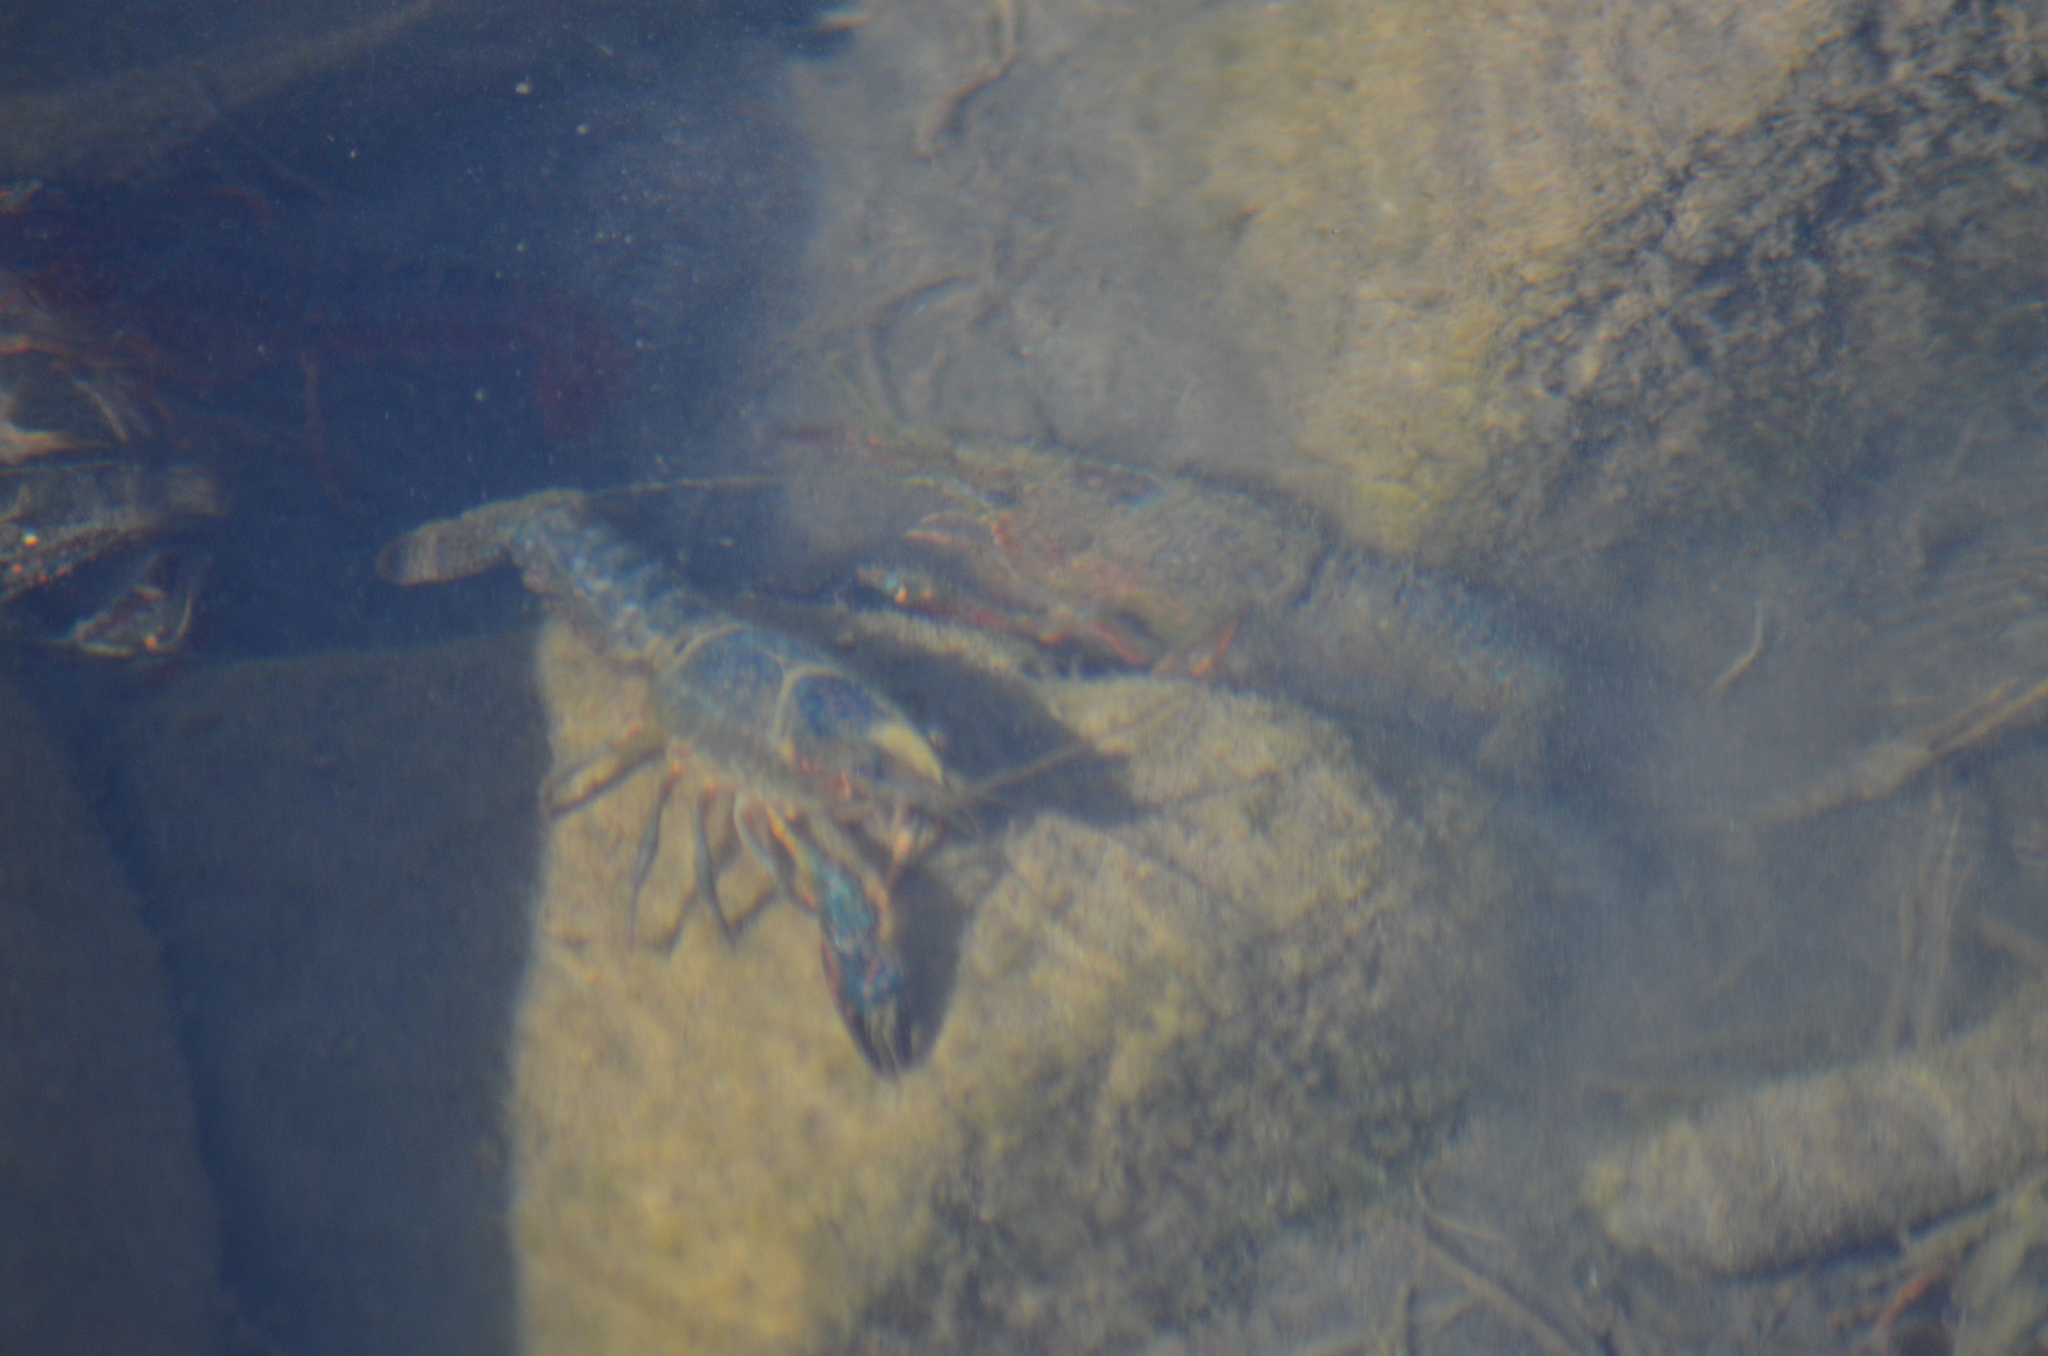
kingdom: Animalia
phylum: Arthropoda
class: Malacostraca
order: Decapoda
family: Cambaridae
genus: Procambarus
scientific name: Procambarus clarkii
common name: Red swamp crayfish
